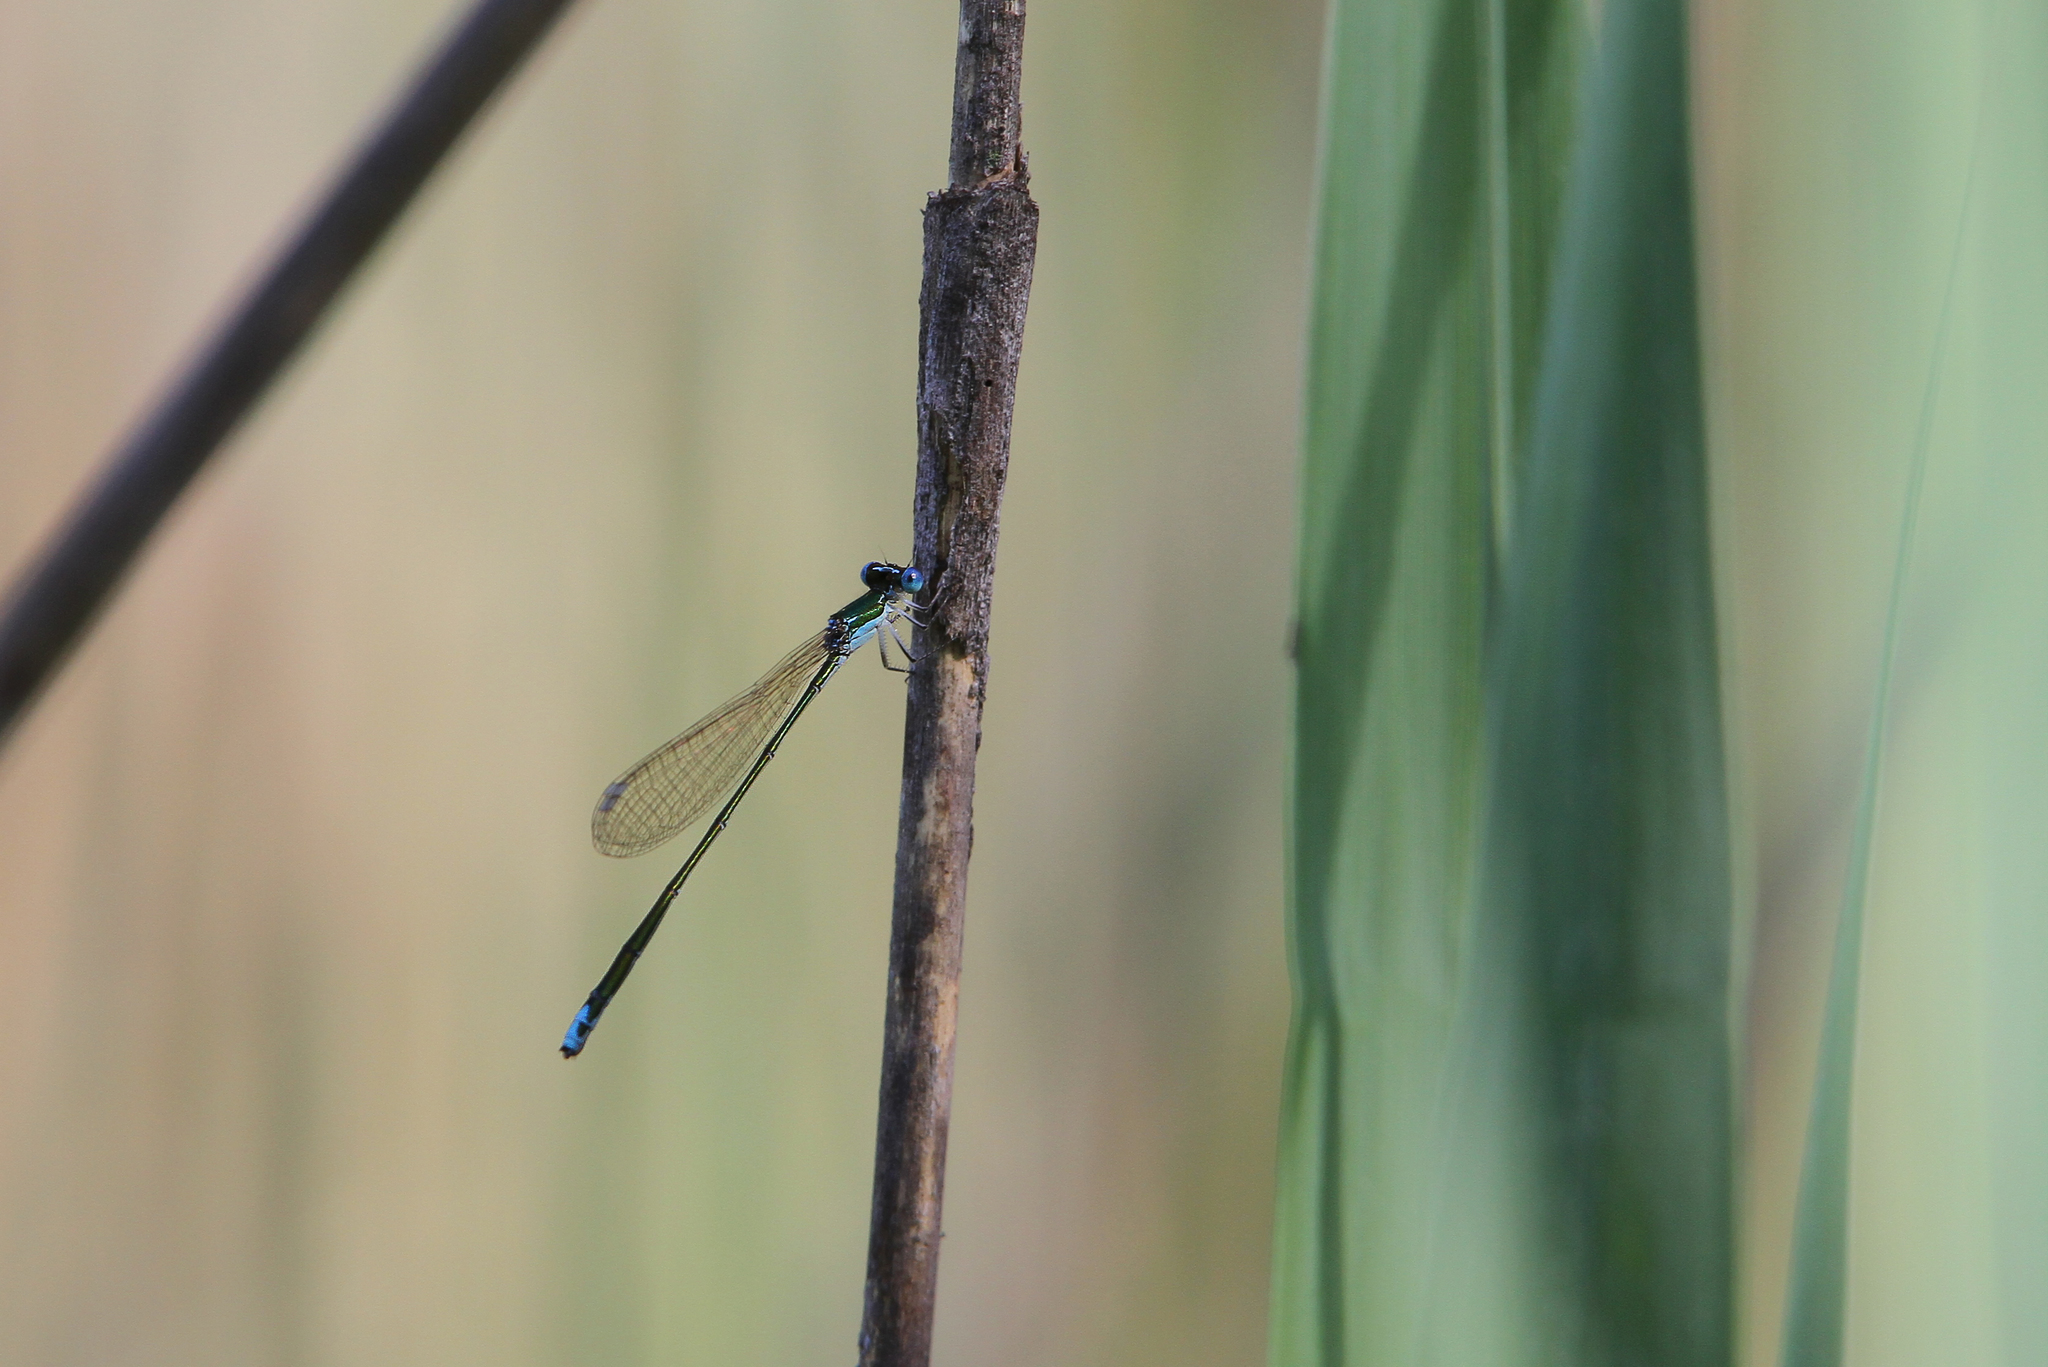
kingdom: Animalia
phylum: Arthropoda
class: Insecta
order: Odonata
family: Coenagrionidae
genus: Nehalennia
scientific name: Nehalennia speciosa
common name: Sedgling
